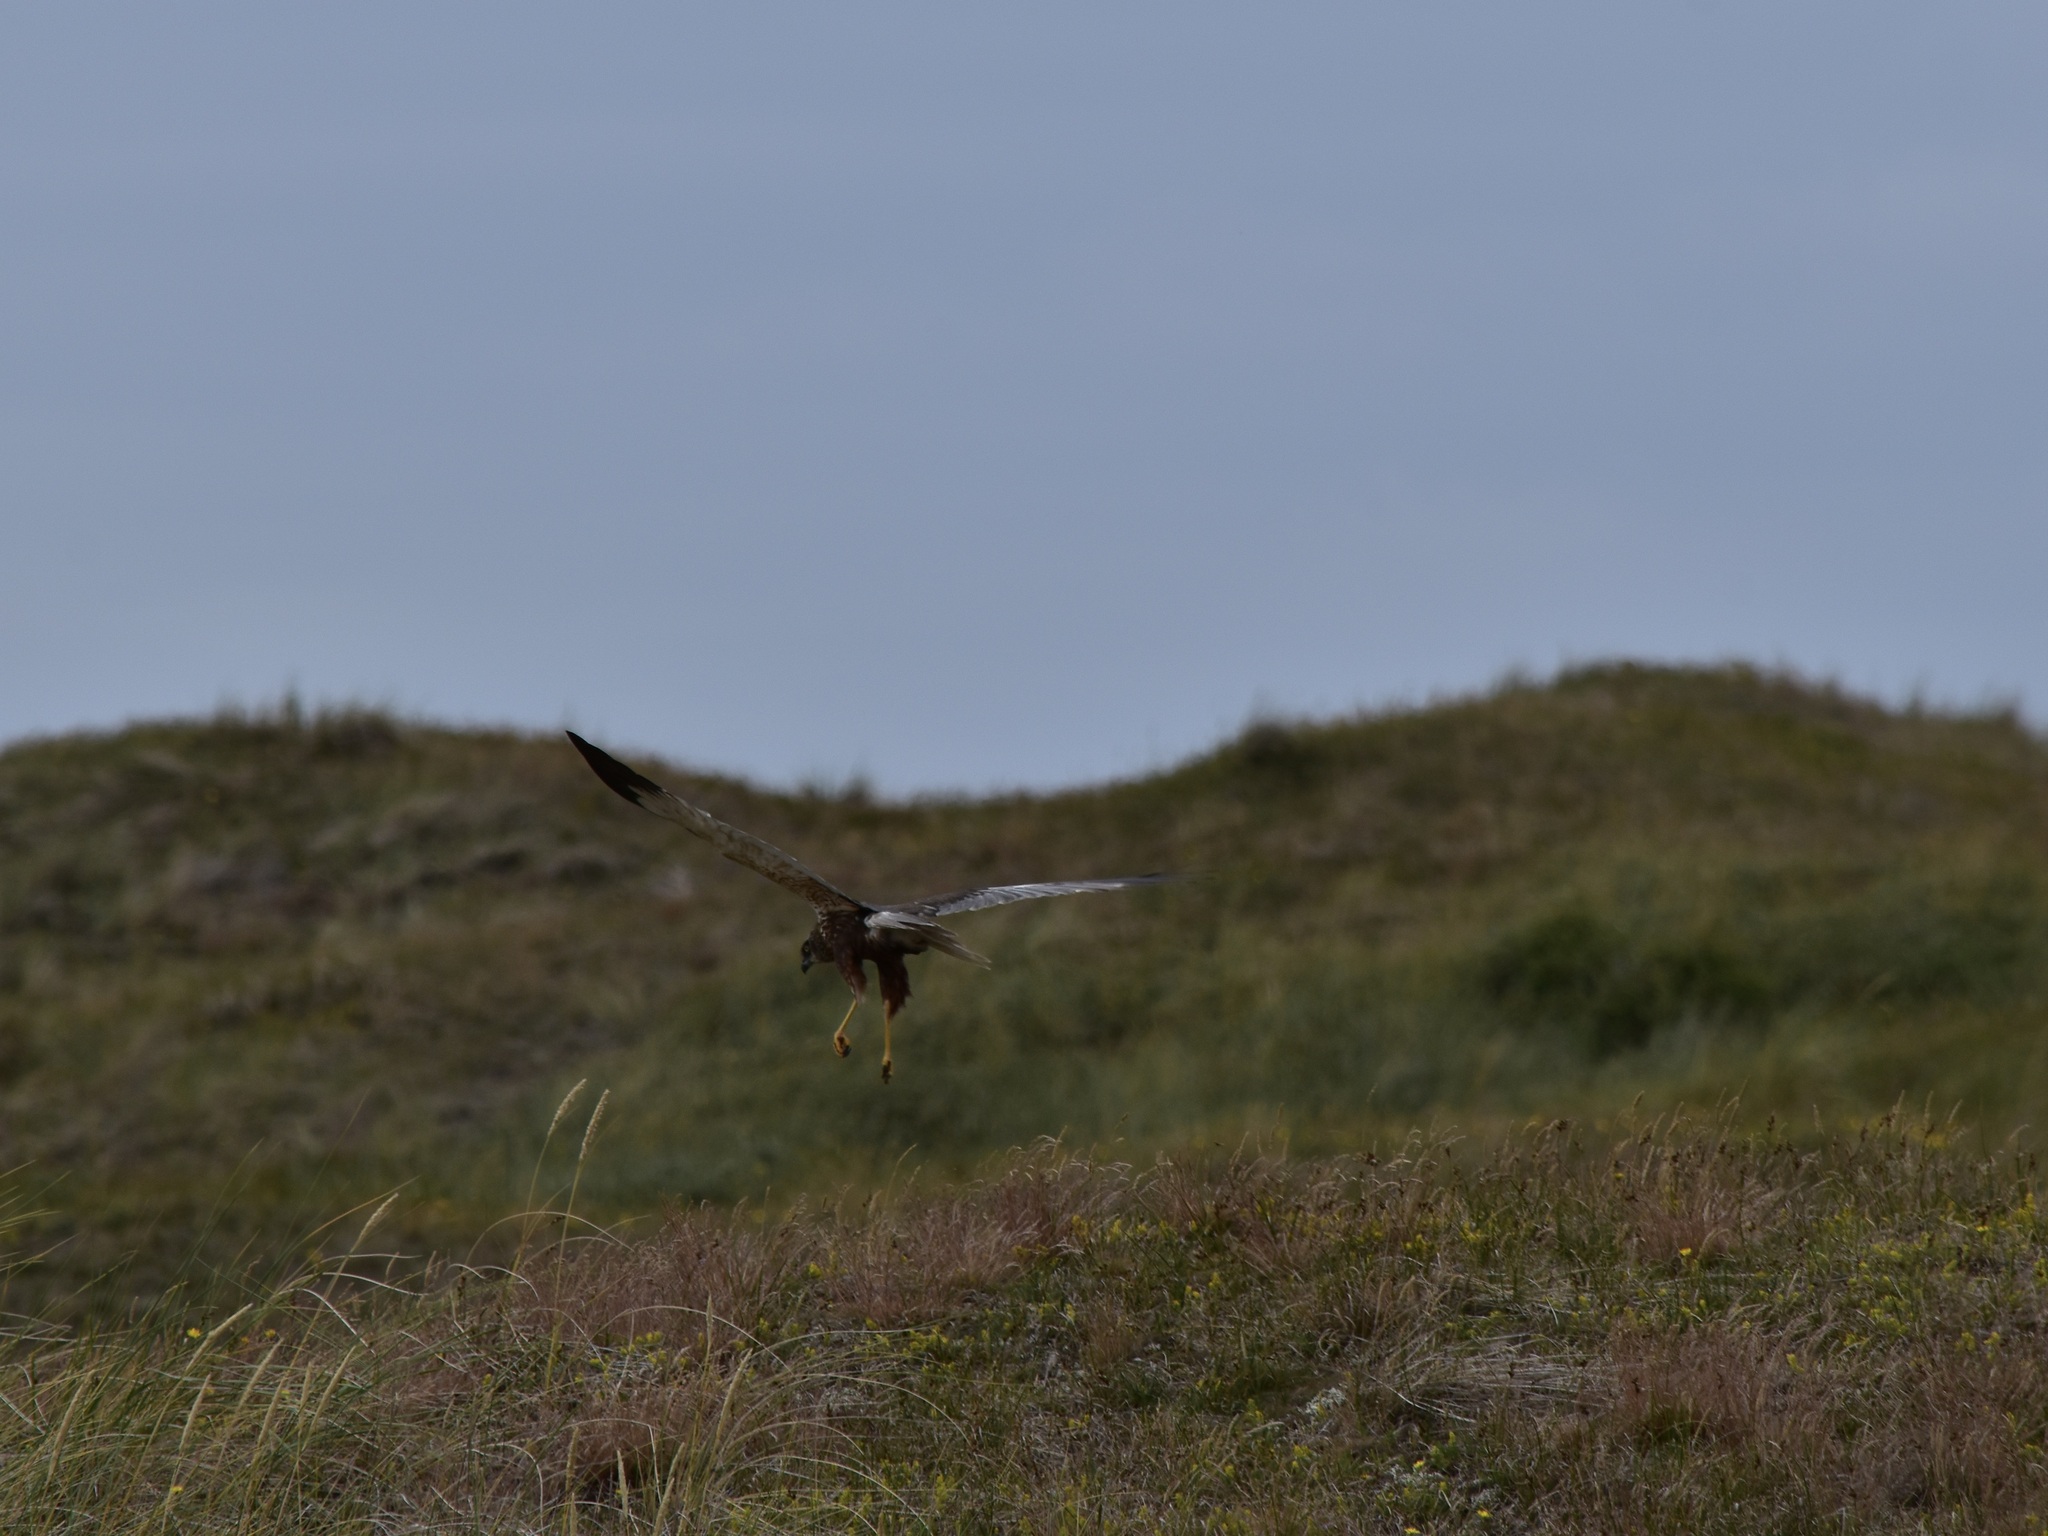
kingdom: Animalia
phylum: Chordata
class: Aves
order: Accipitriformes
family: Accipitridae
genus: Circus
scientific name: Circus aeruginosus
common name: Western marsh harrier
